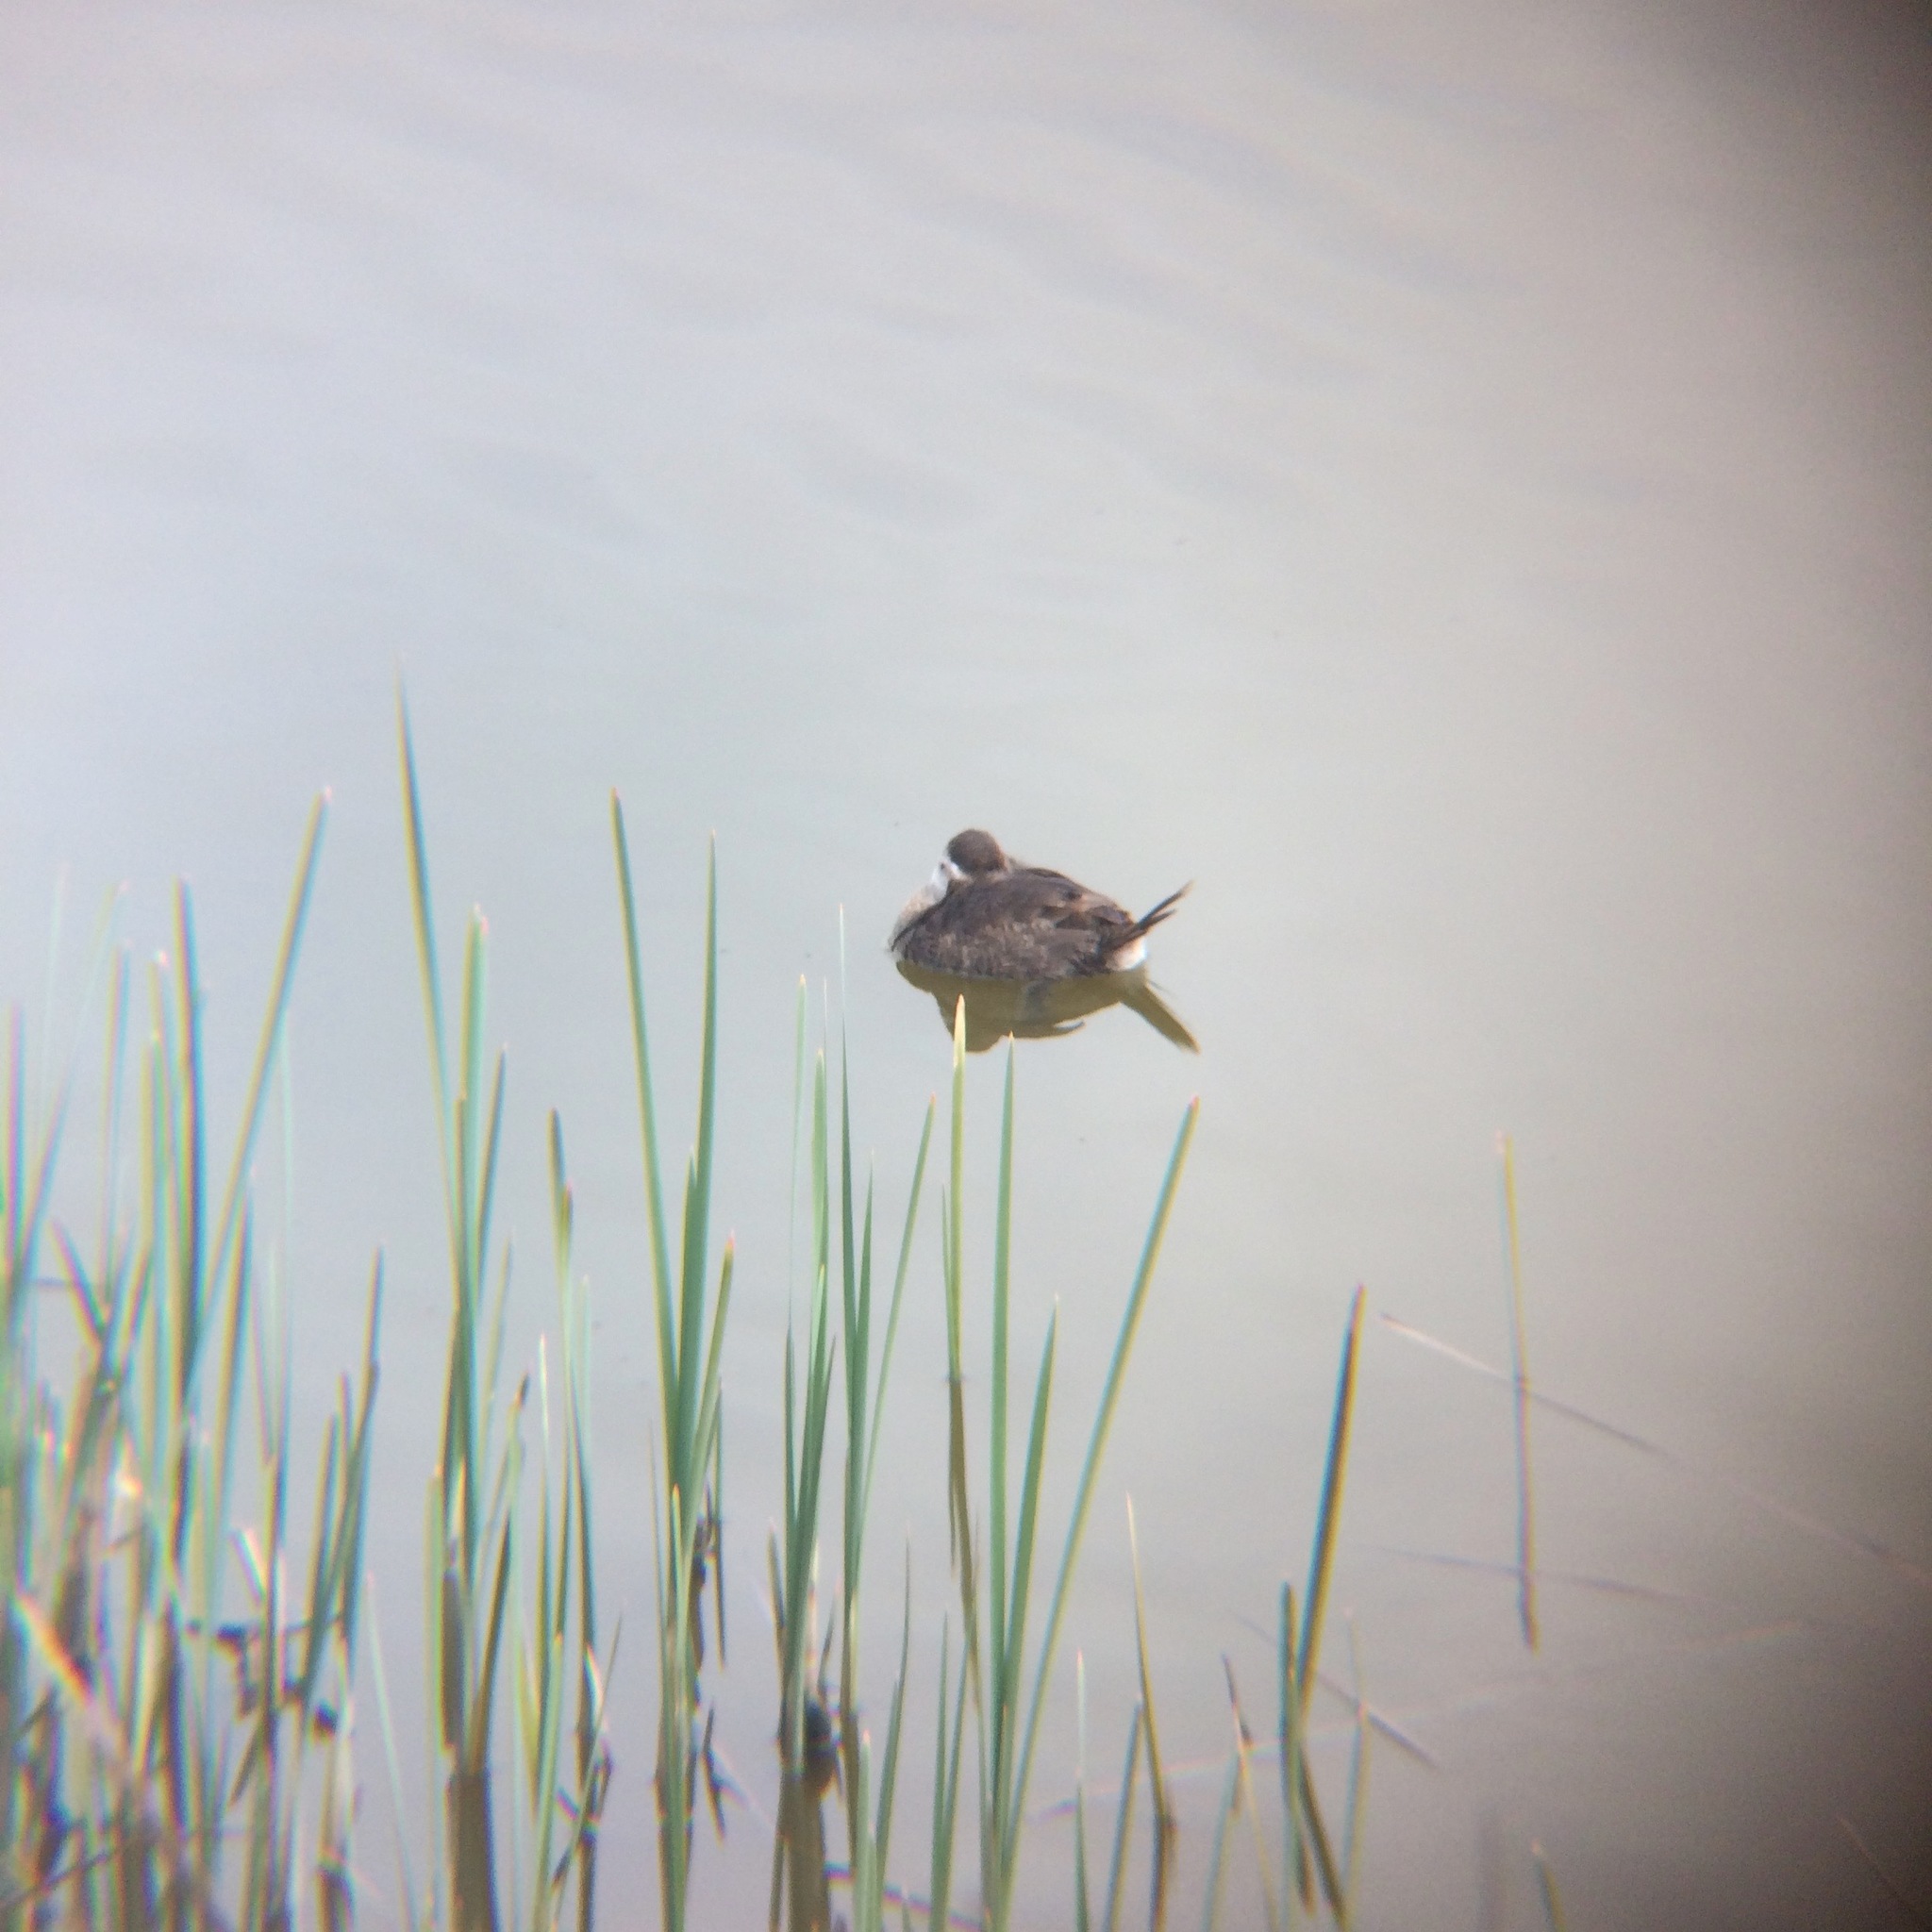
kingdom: Animalia
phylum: Chordata
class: Aves
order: Anseriformes
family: Anatidae
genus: Oxyura
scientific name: Oxyura jamaicensis
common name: Ruddy duck
